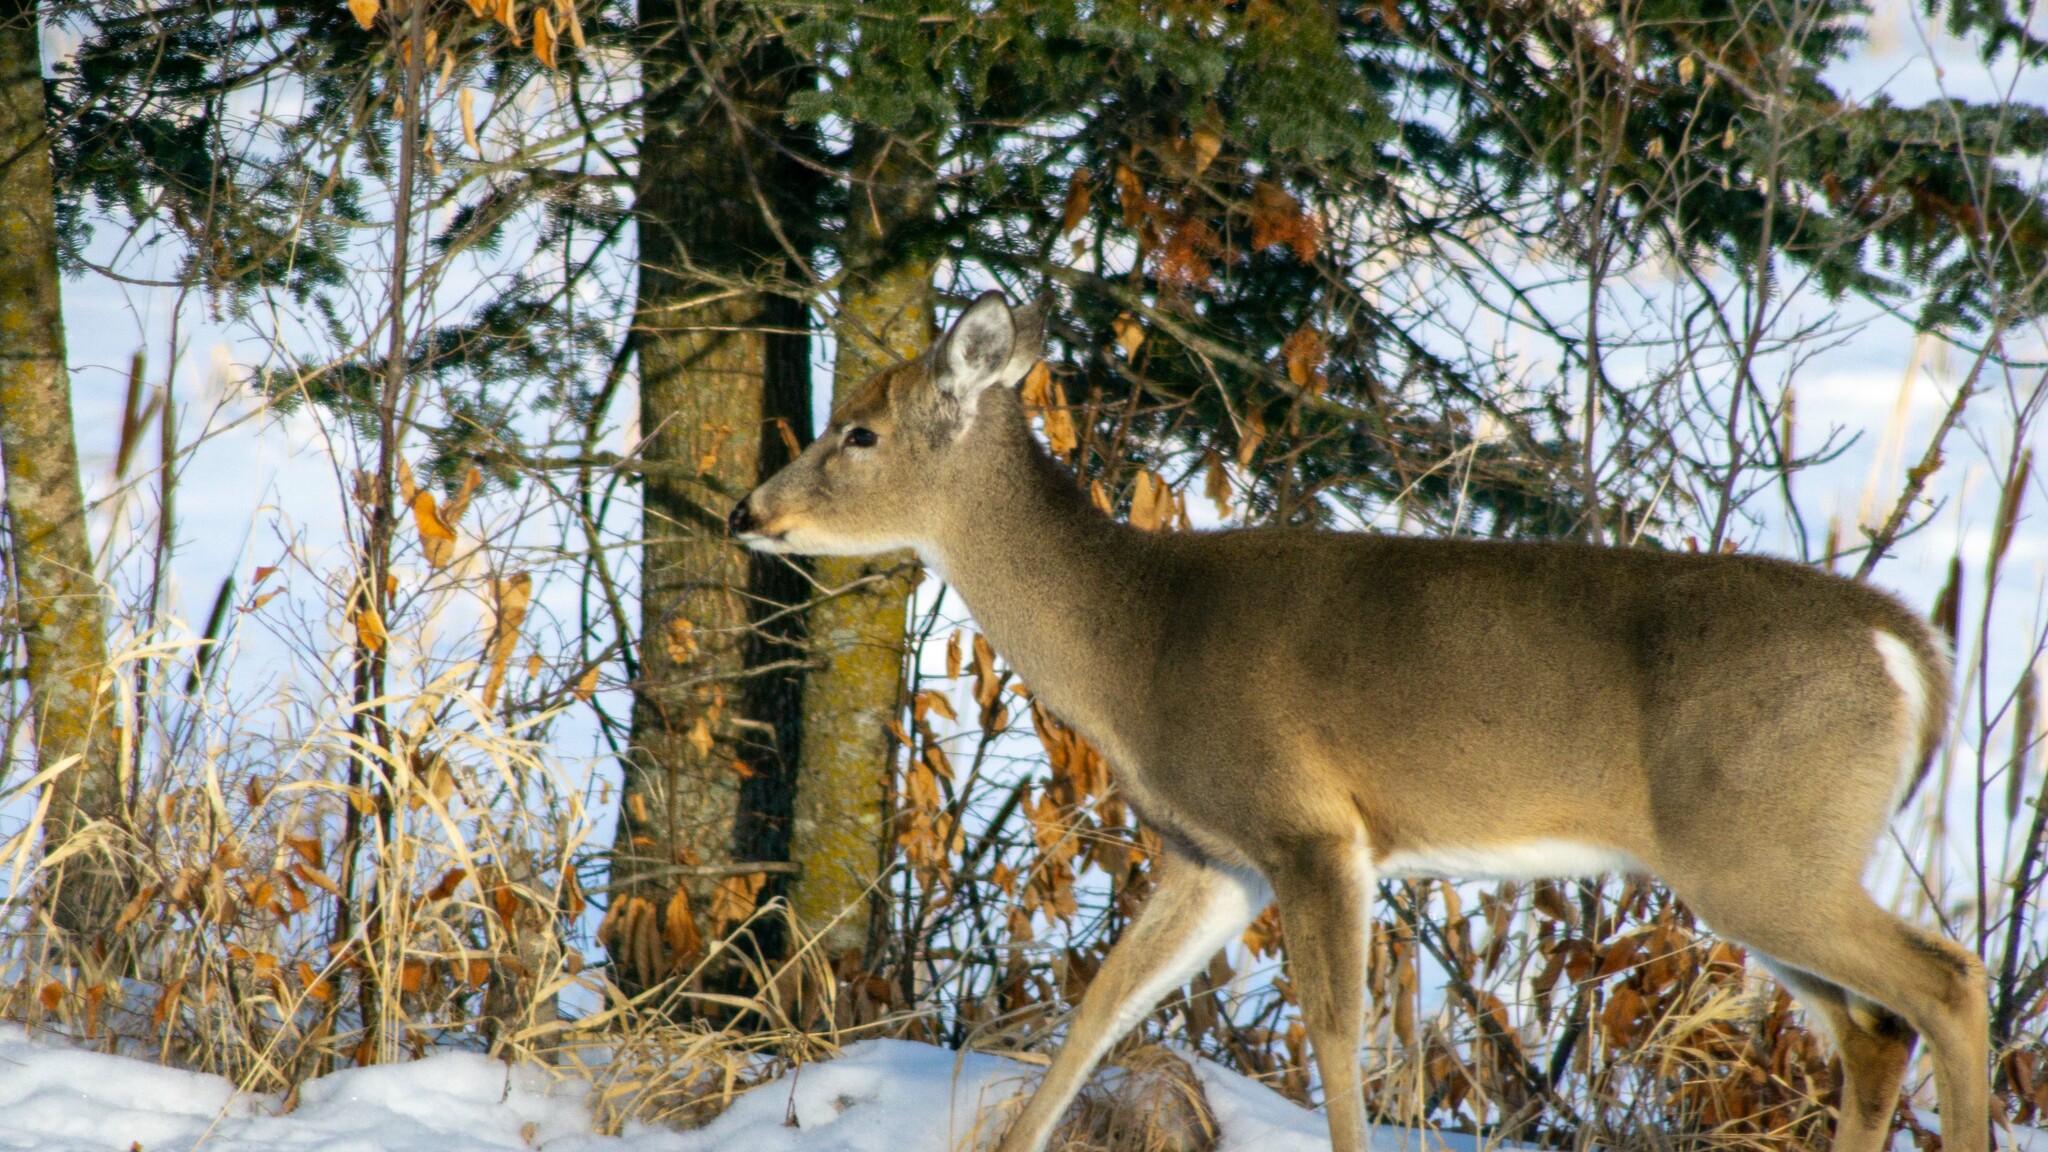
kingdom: Animalia
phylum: Chordata
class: Mammalia
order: Artiodactyla
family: Cervidae
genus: Odocoileus
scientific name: Odocoileus virginianus
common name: White-tailed deer
